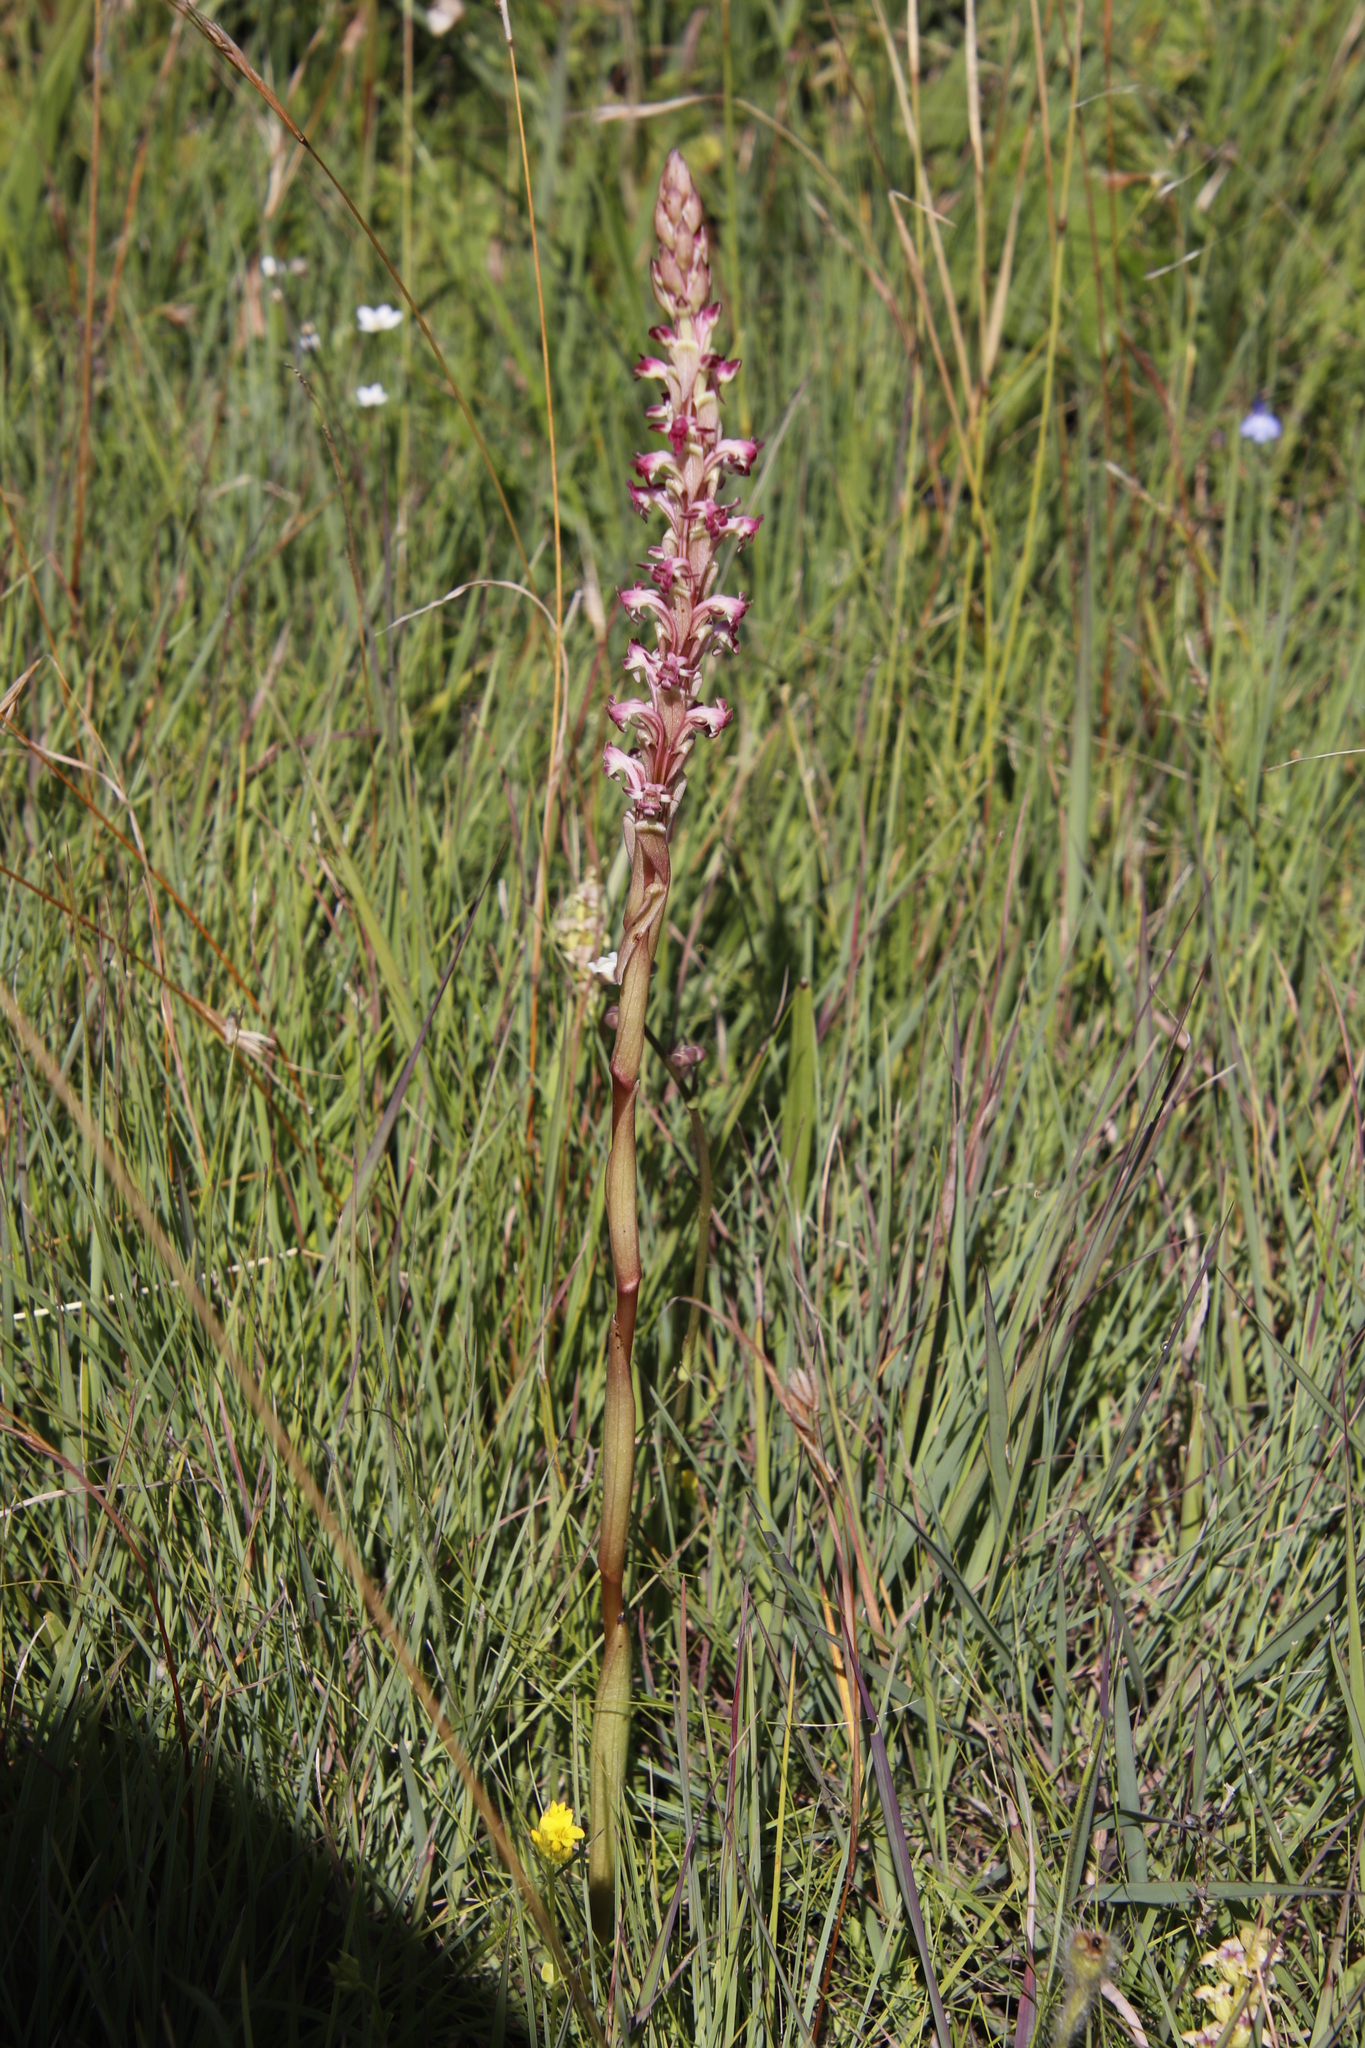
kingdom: Plantae
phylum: Tracheophyta
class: Liliopsida
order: Asparagales
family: Orchidaceae
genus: Satyrium
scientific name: Satyrium longicauda
